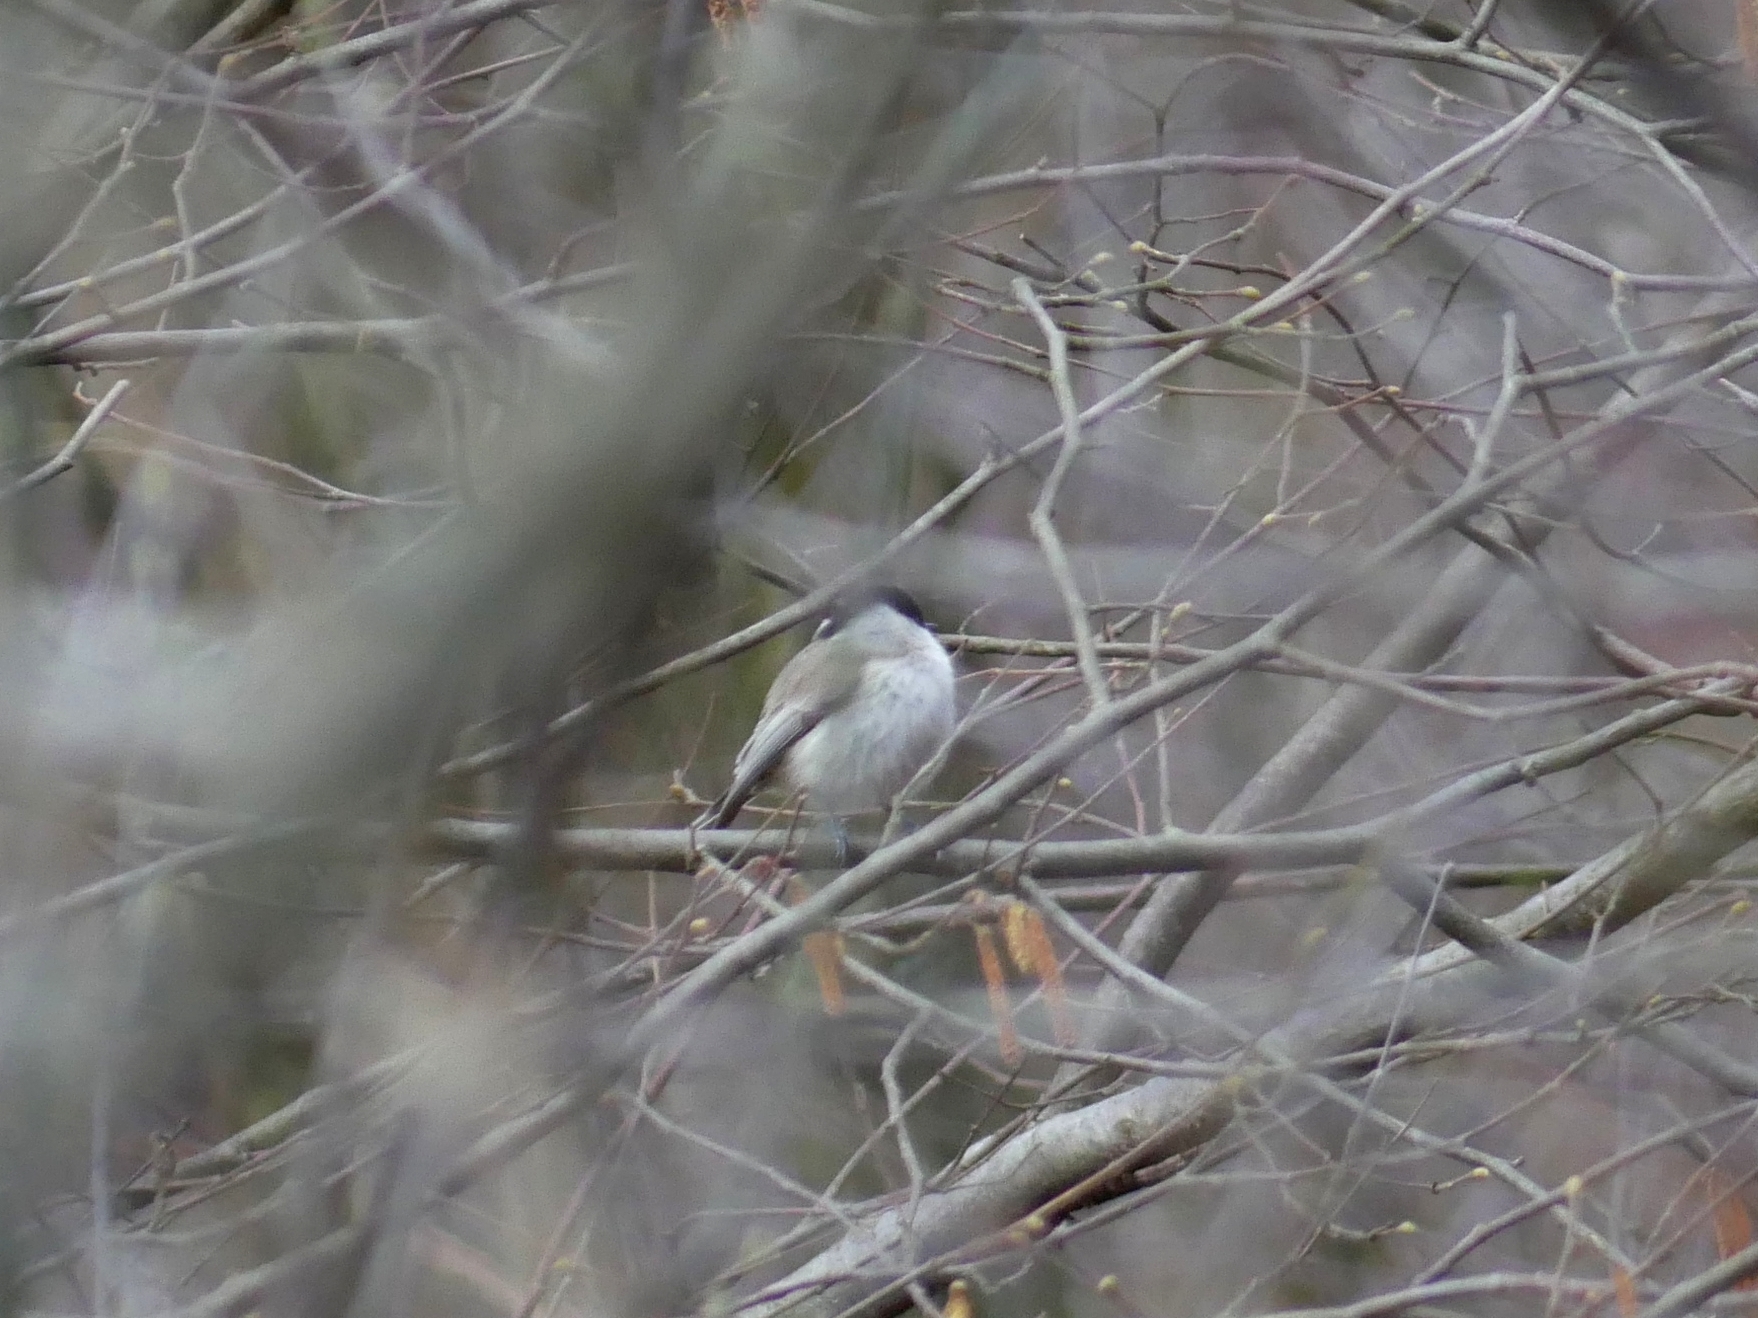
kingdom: Animalia
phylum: Chordata
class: Aves
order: Passeriformes
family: Paridae
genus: Poecile
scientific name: Poecile montanus
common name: Willow tit
